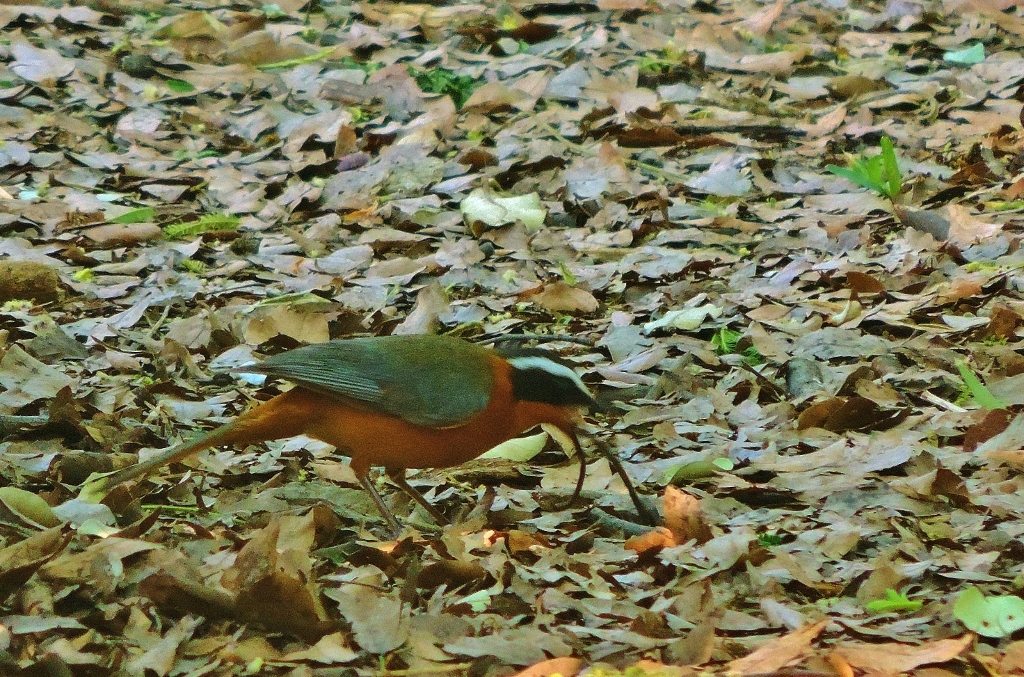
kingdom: Animalia
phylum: Chordata
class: Aves
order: Passeriformes
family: Muscicapidae
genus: Cossypha
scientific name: Cossypha heuglini
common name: White-browed robin-chat
